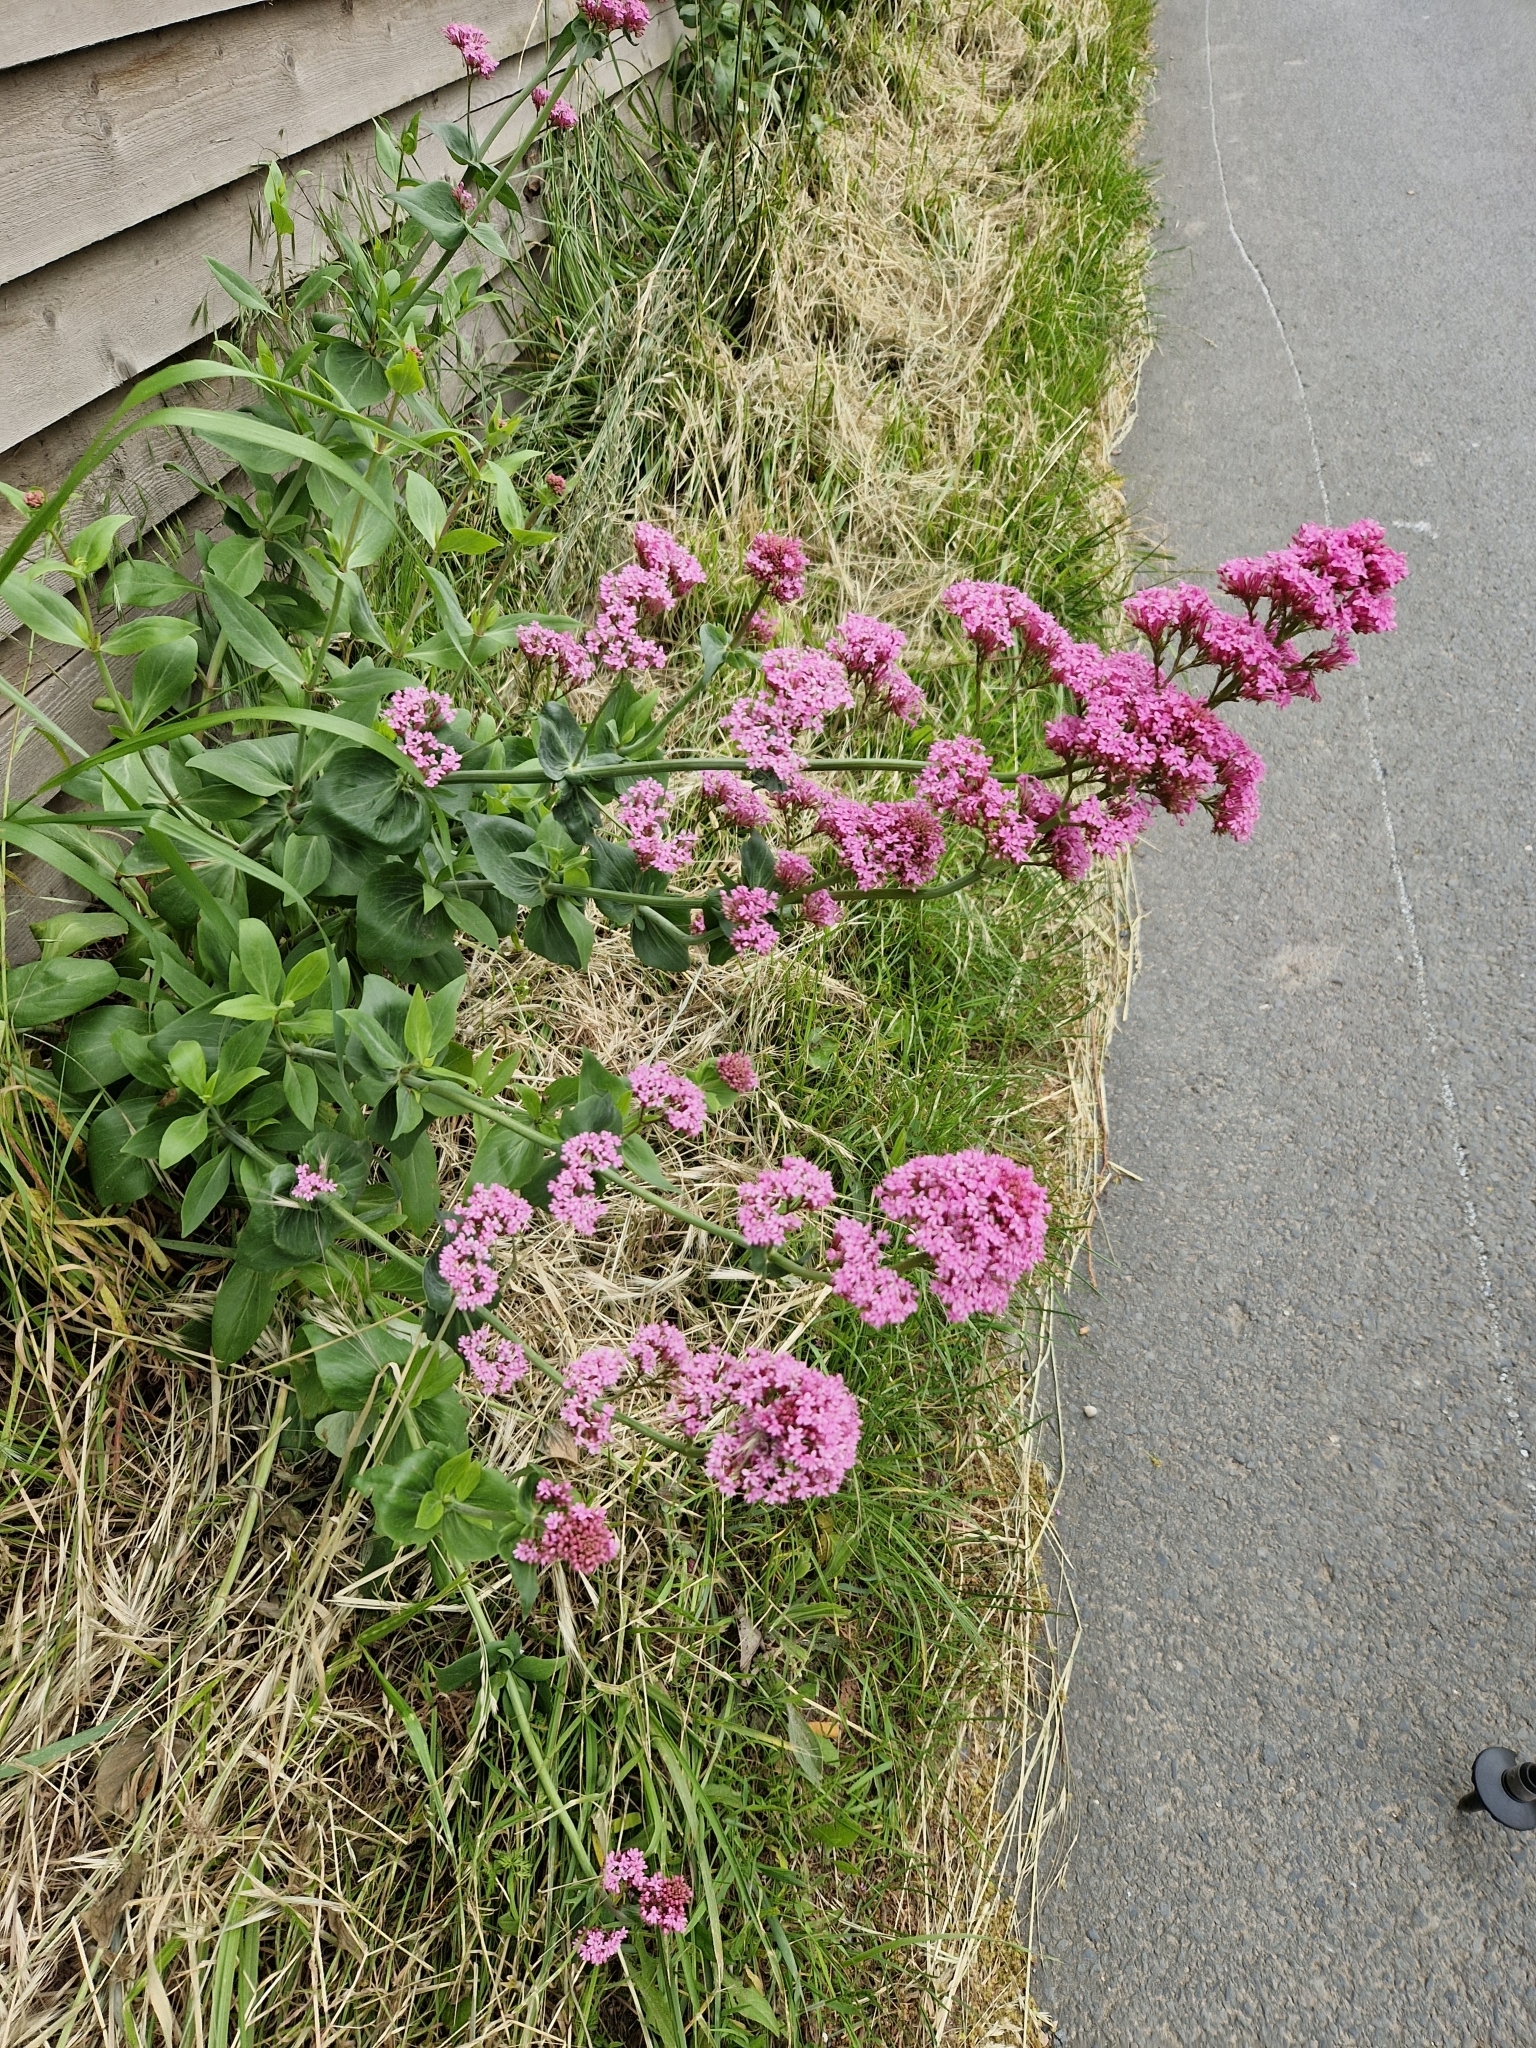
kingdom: Plantae
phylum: Tracheophyta
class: Magnoliopsida
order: Dipsacales
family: Caprifoliaceae
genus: Centranthus
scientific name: Centranthus ruber
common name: Red valerian
